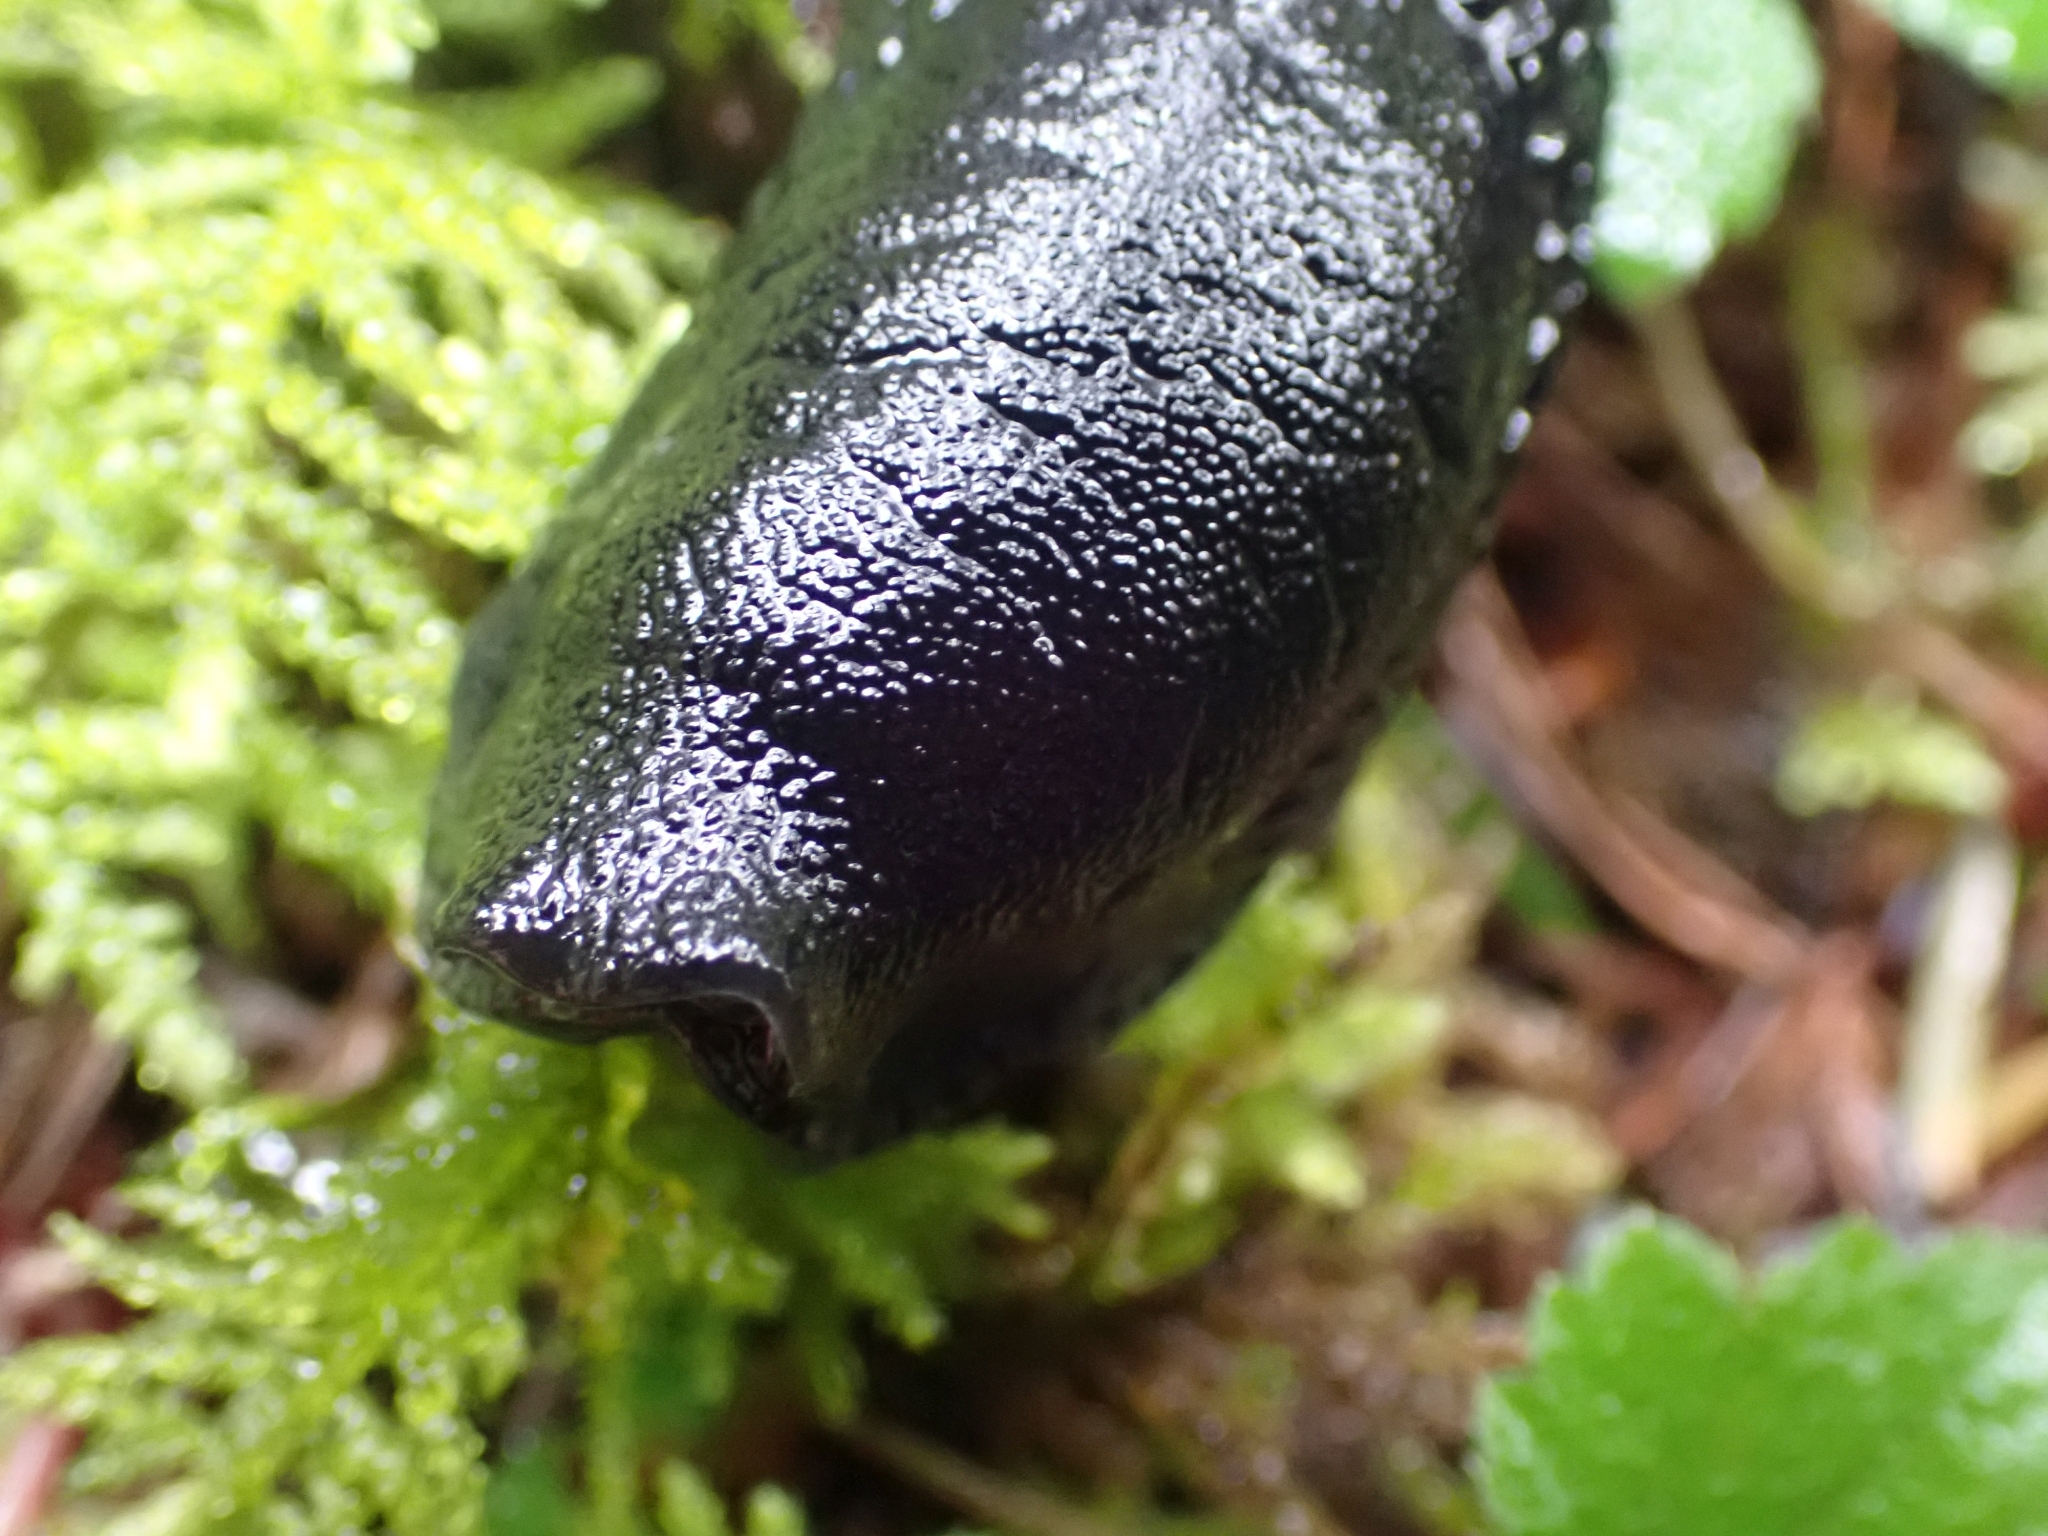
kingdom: Animalia
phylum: Mollusca
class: Gastropoda
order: Stylommatophora
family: Arionidae
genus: Arion
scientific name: Arion
